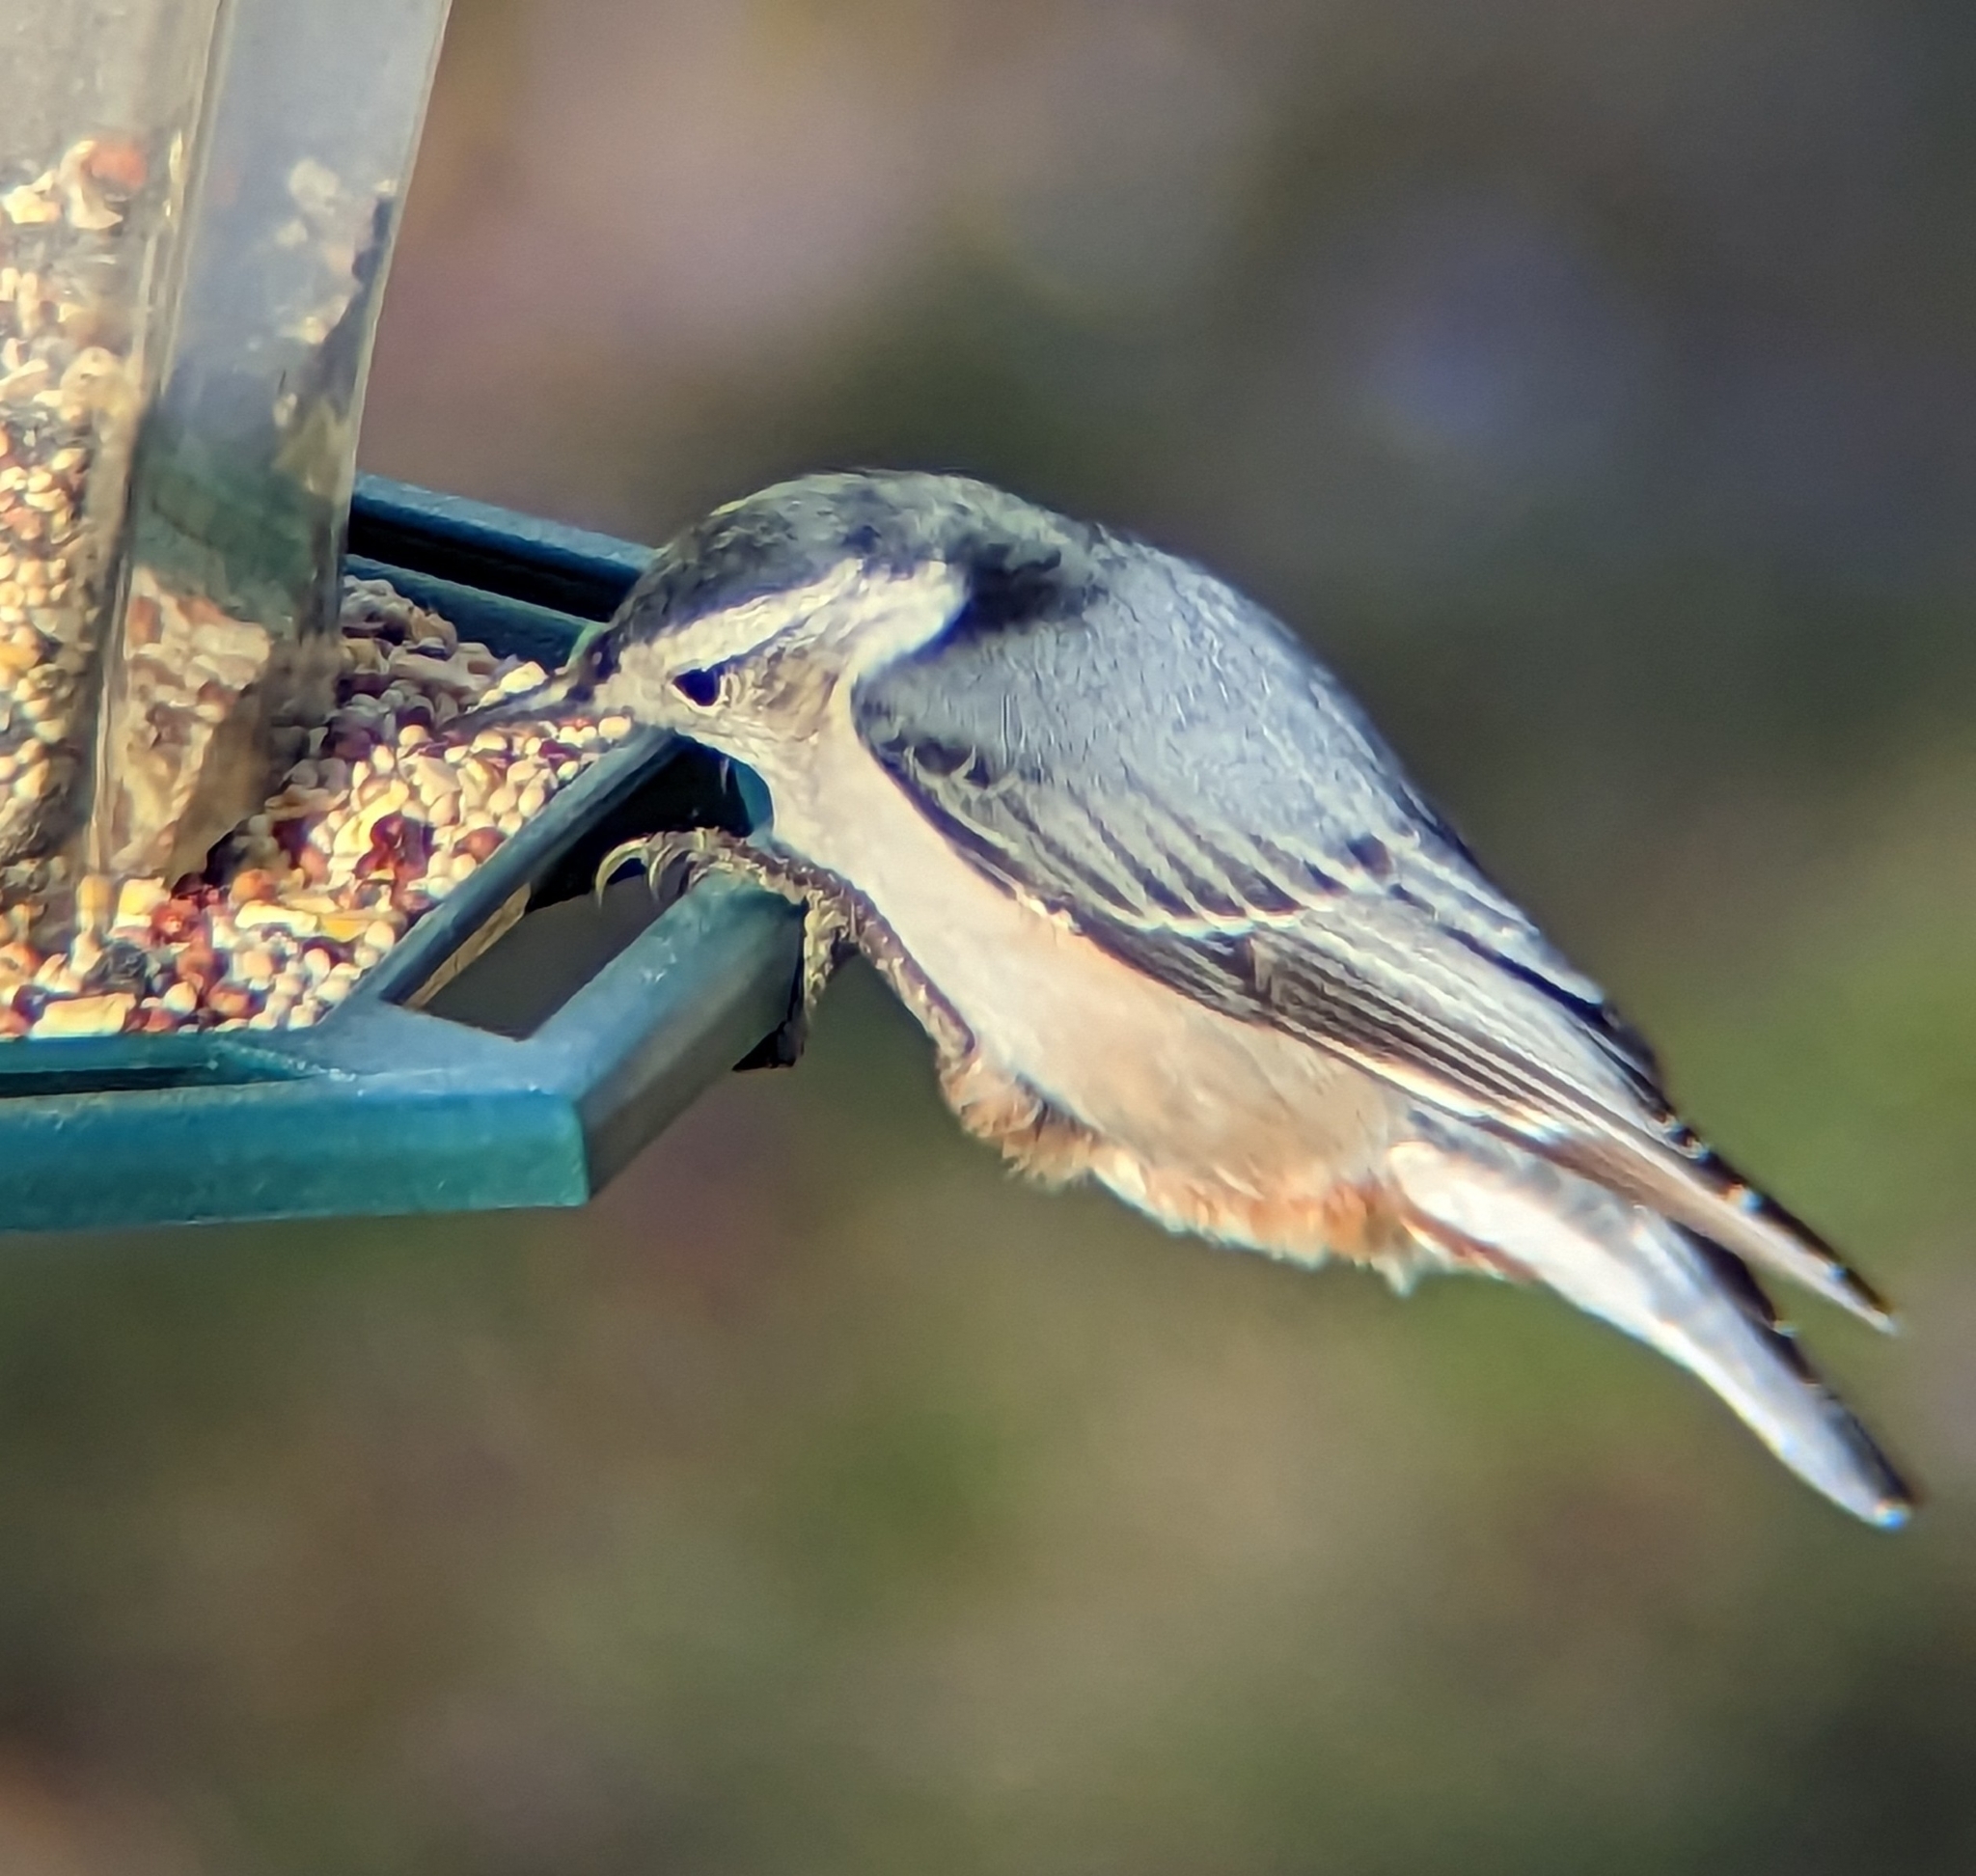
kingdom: Animalia
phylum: Chordata
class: Aves
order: Passeriformes
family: Sittidae
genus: Sitta
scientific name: Sitta carolinensis
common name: White-breasted nuthatch
